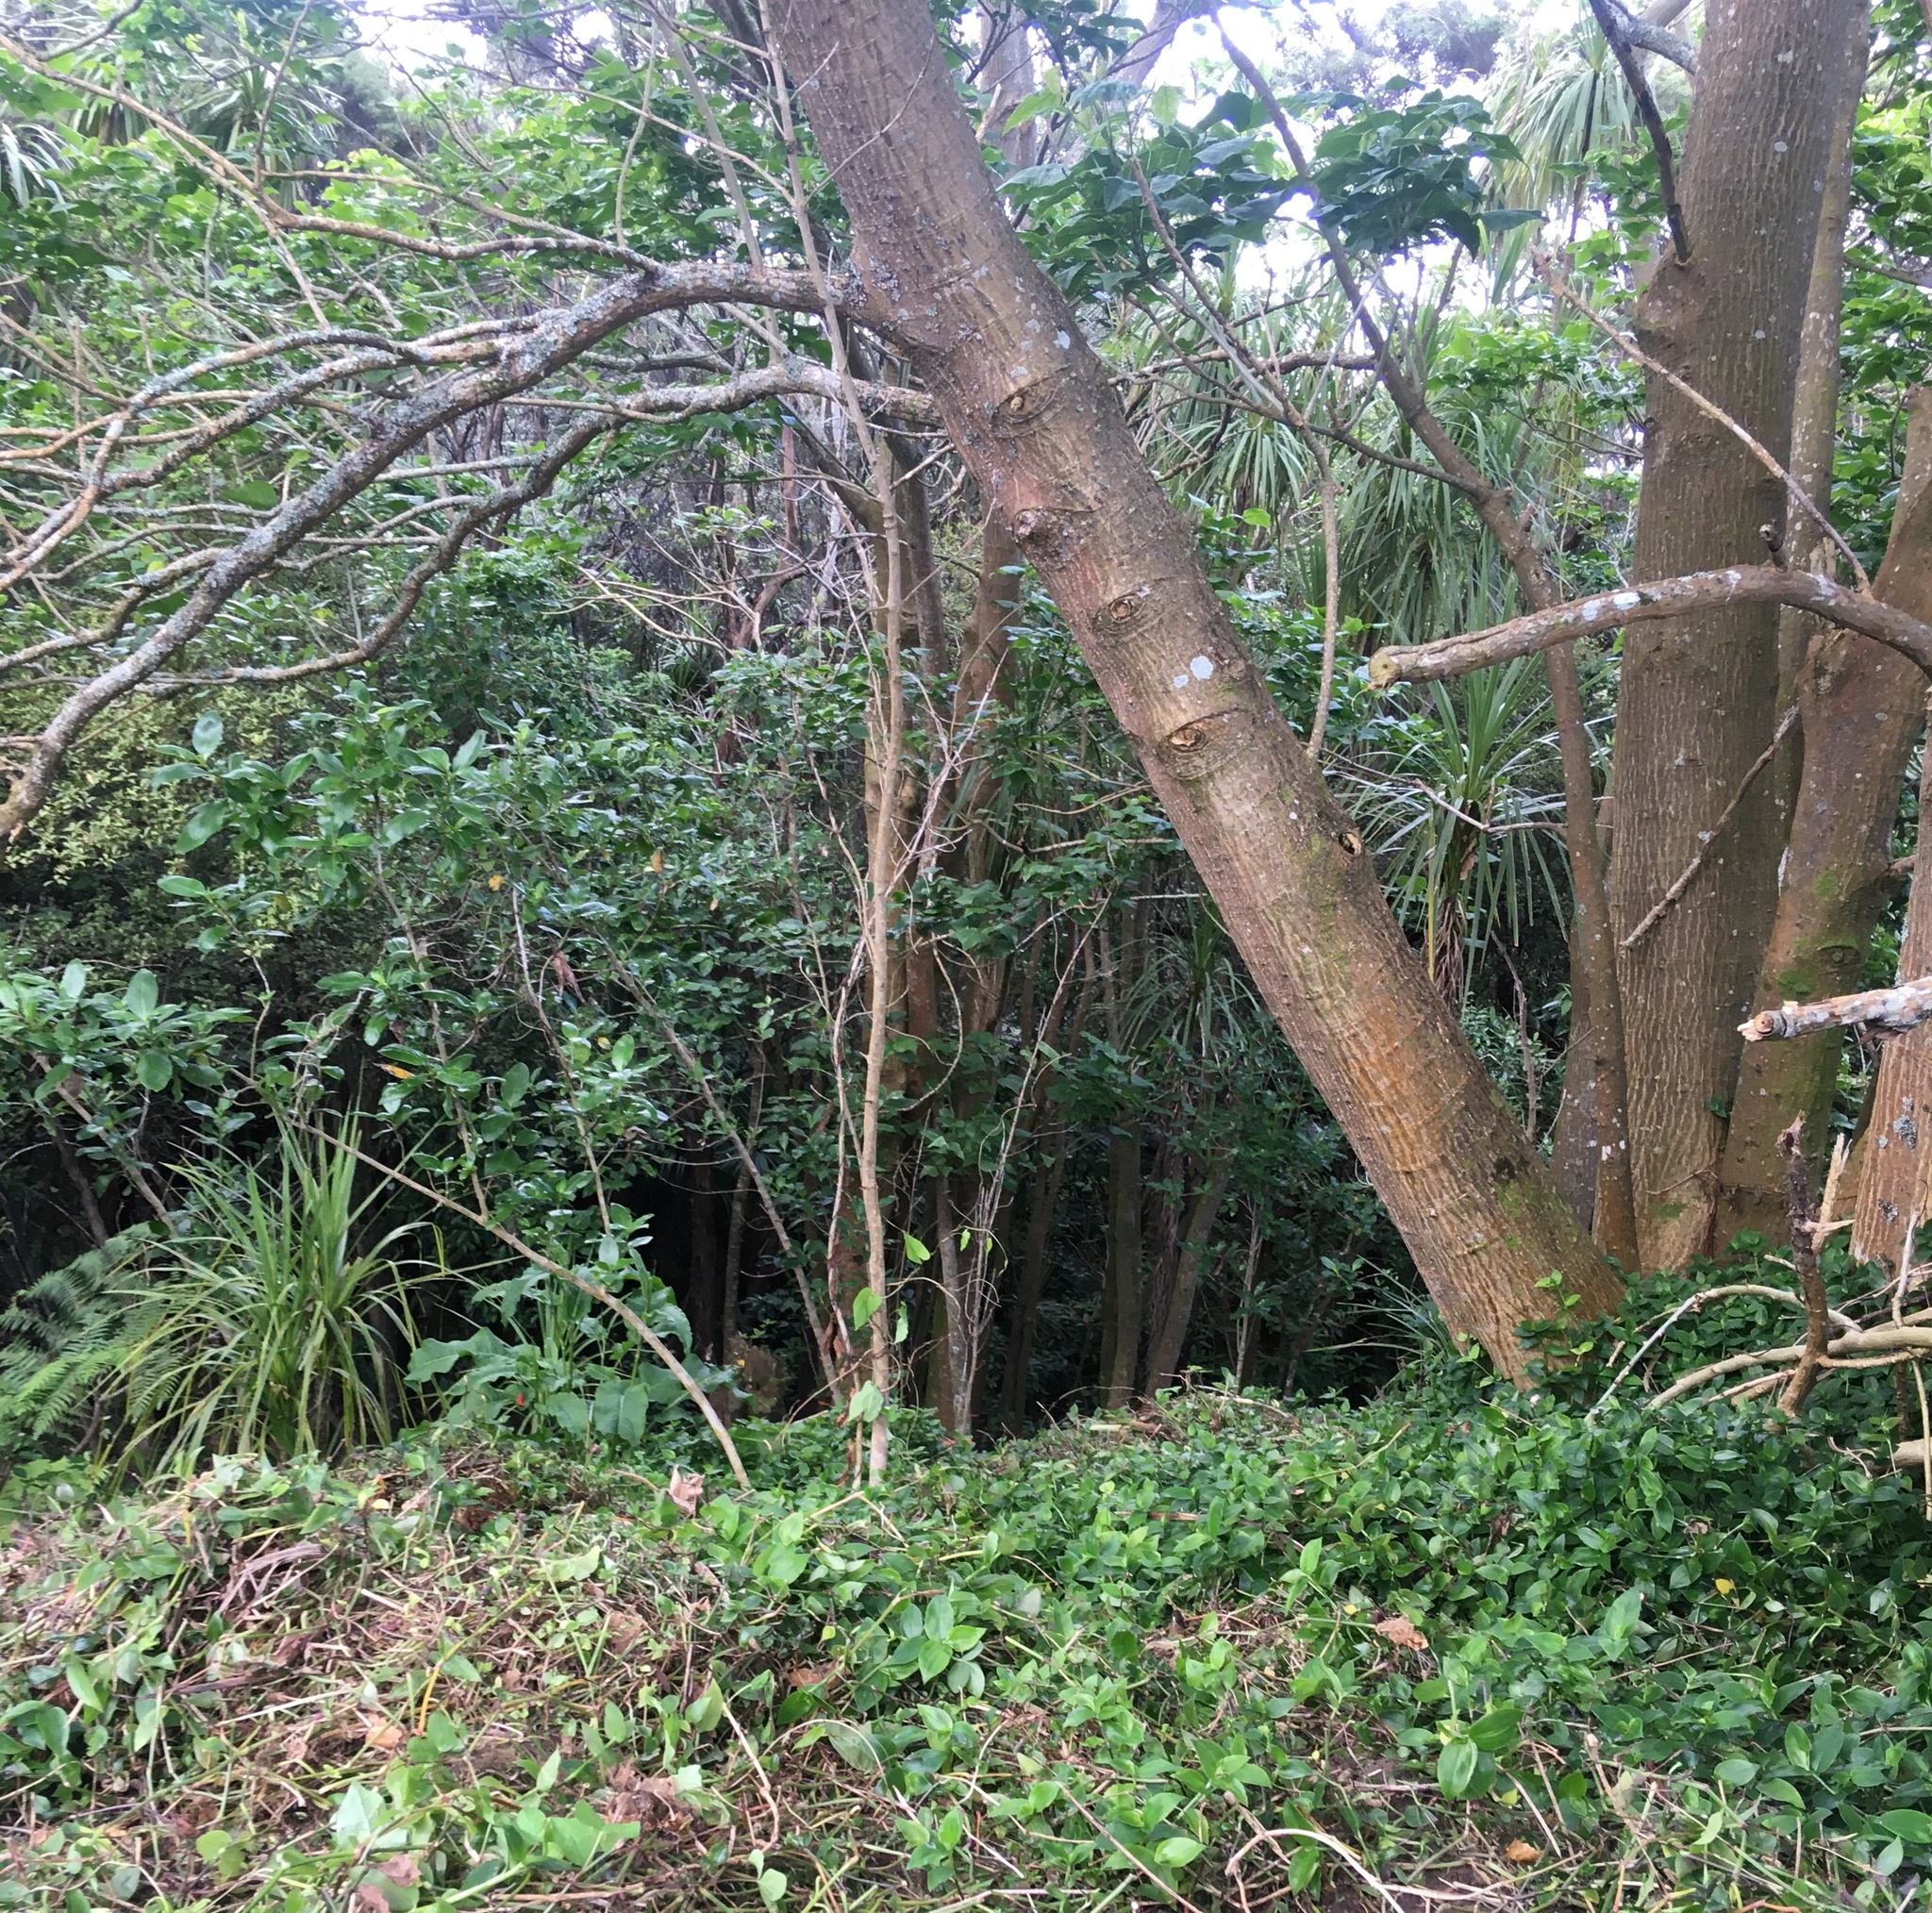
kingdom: Plantae
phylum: Tracheophyta
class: Magnoliopsida
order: Gentianales
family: Rubiaceae
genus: Coprosma
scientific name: Coprosma robusta
